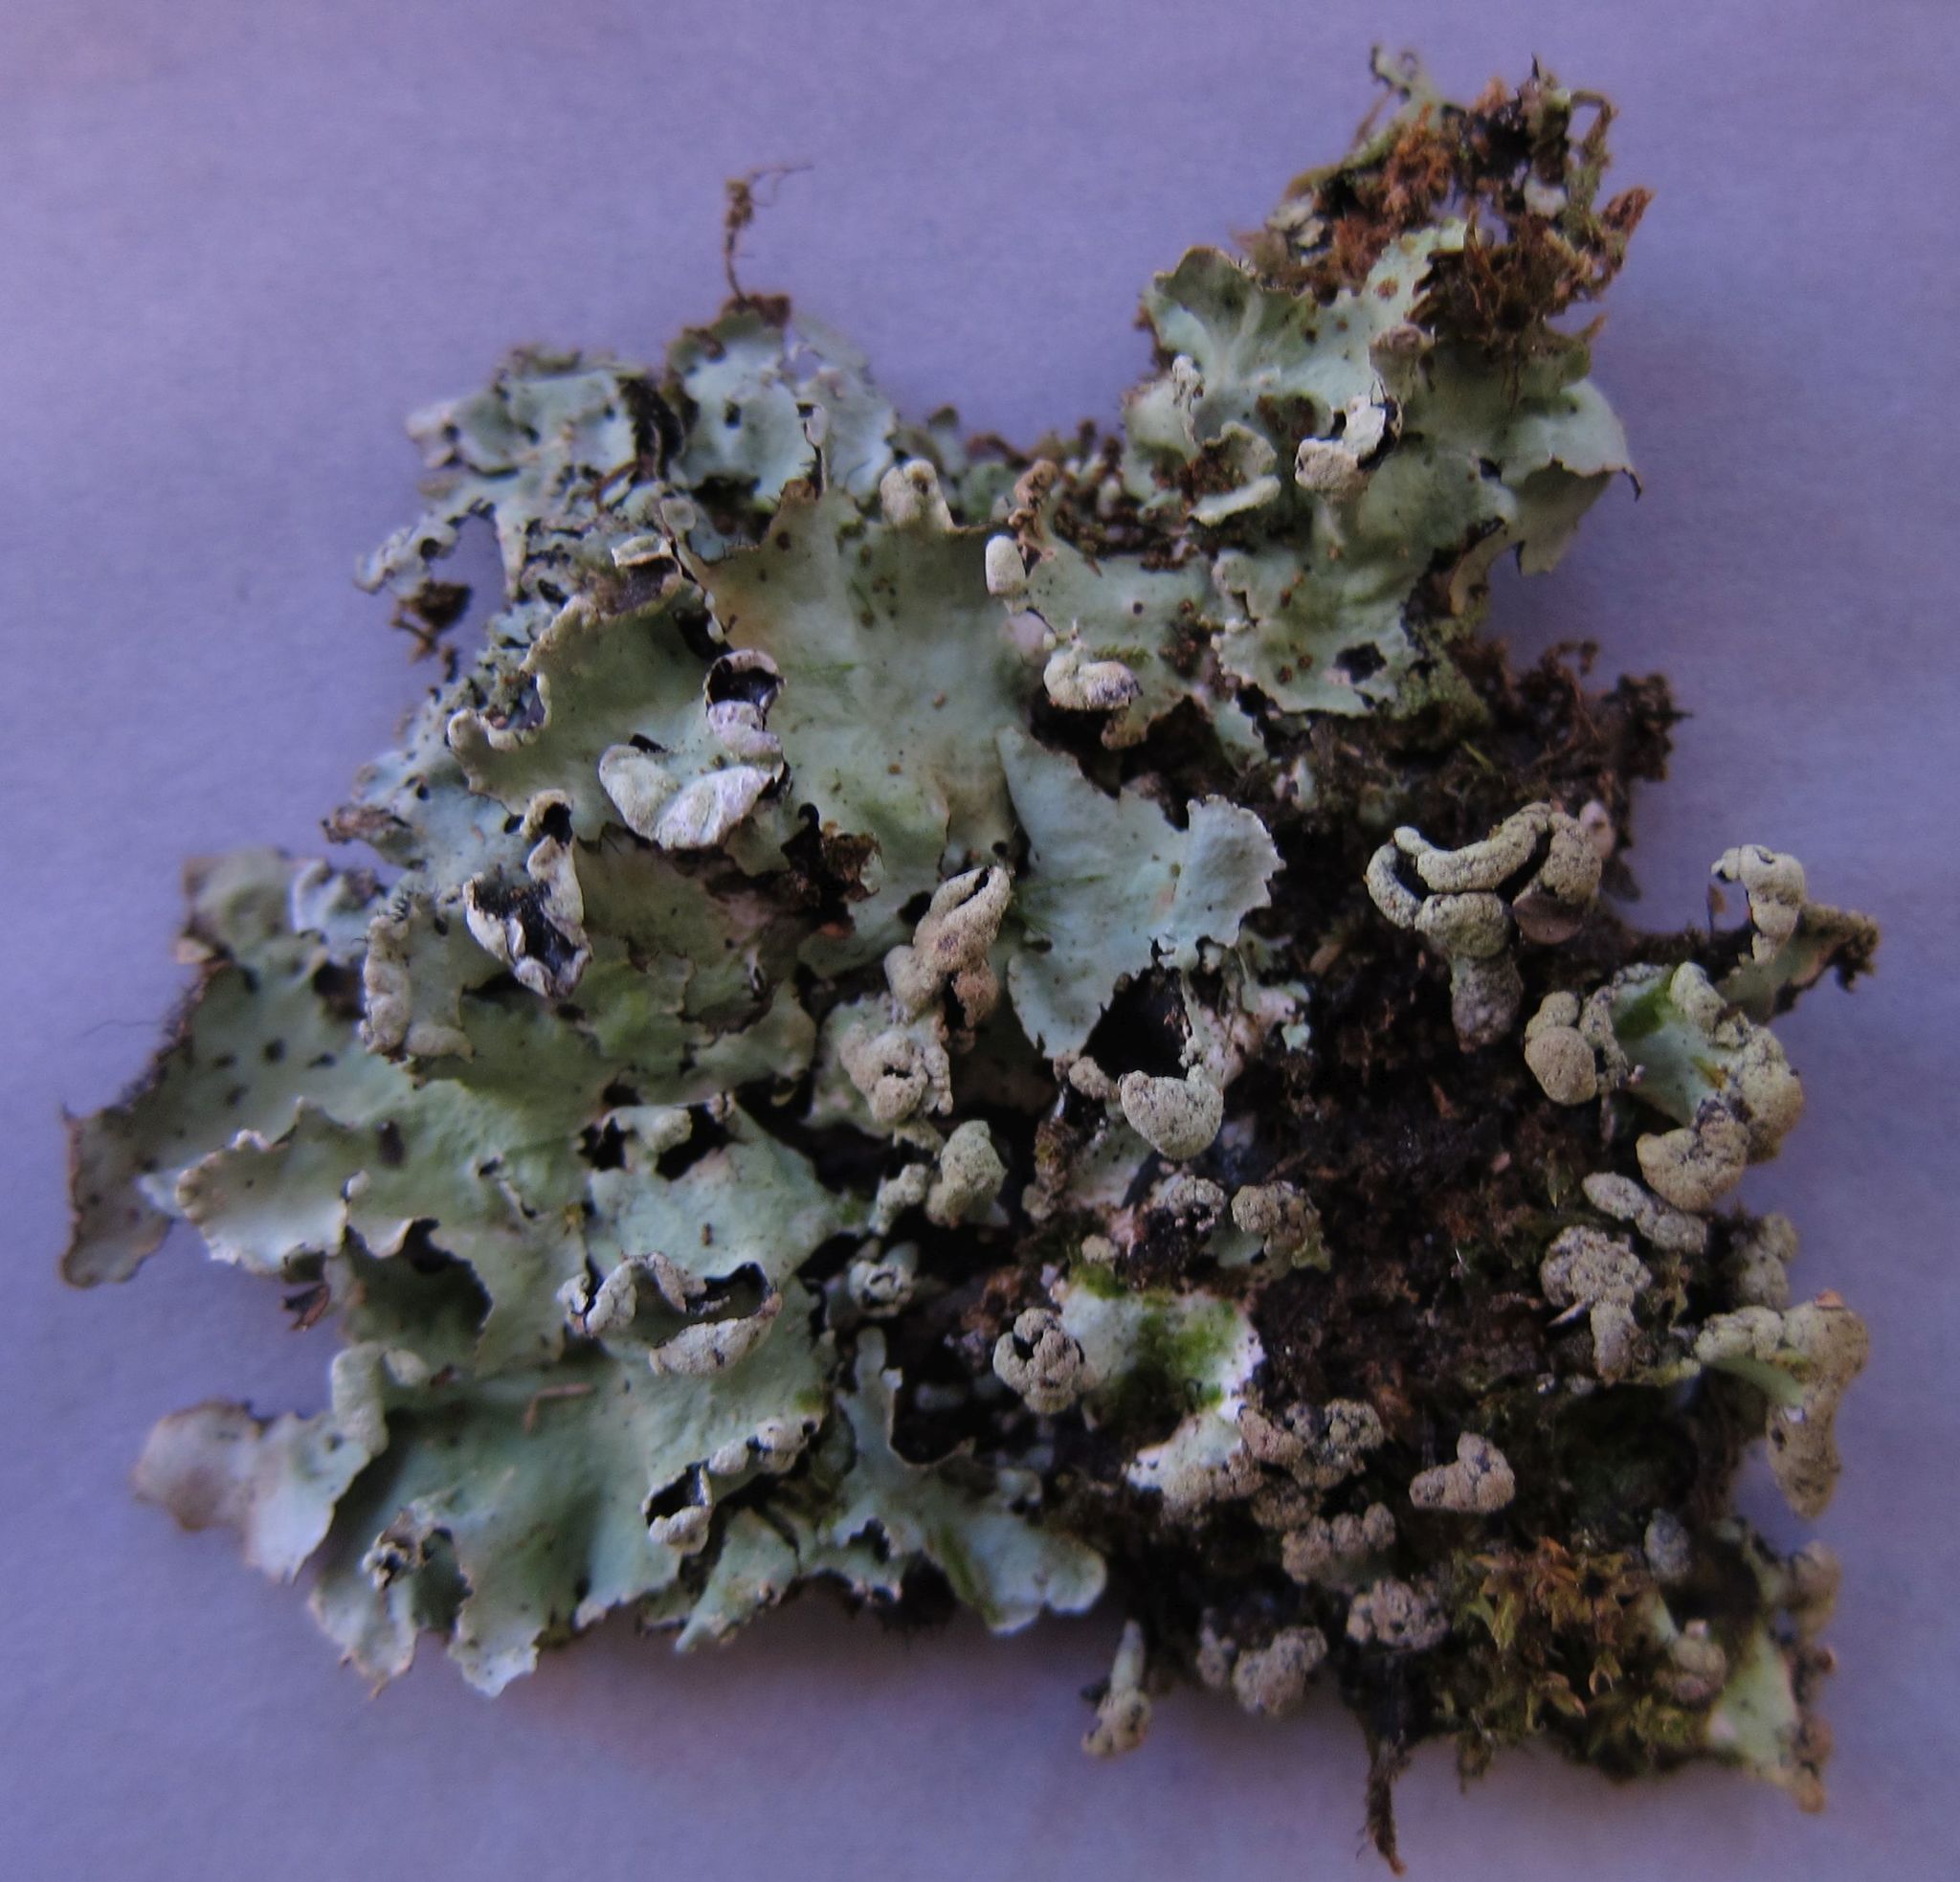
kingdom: Fungi
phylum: Ascomycota
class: Lecanoromycetes
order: Lecanorales
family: Parmeliaceae
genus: Parmotrema
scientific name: Parmotrema perlatum
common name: Black stone flower
